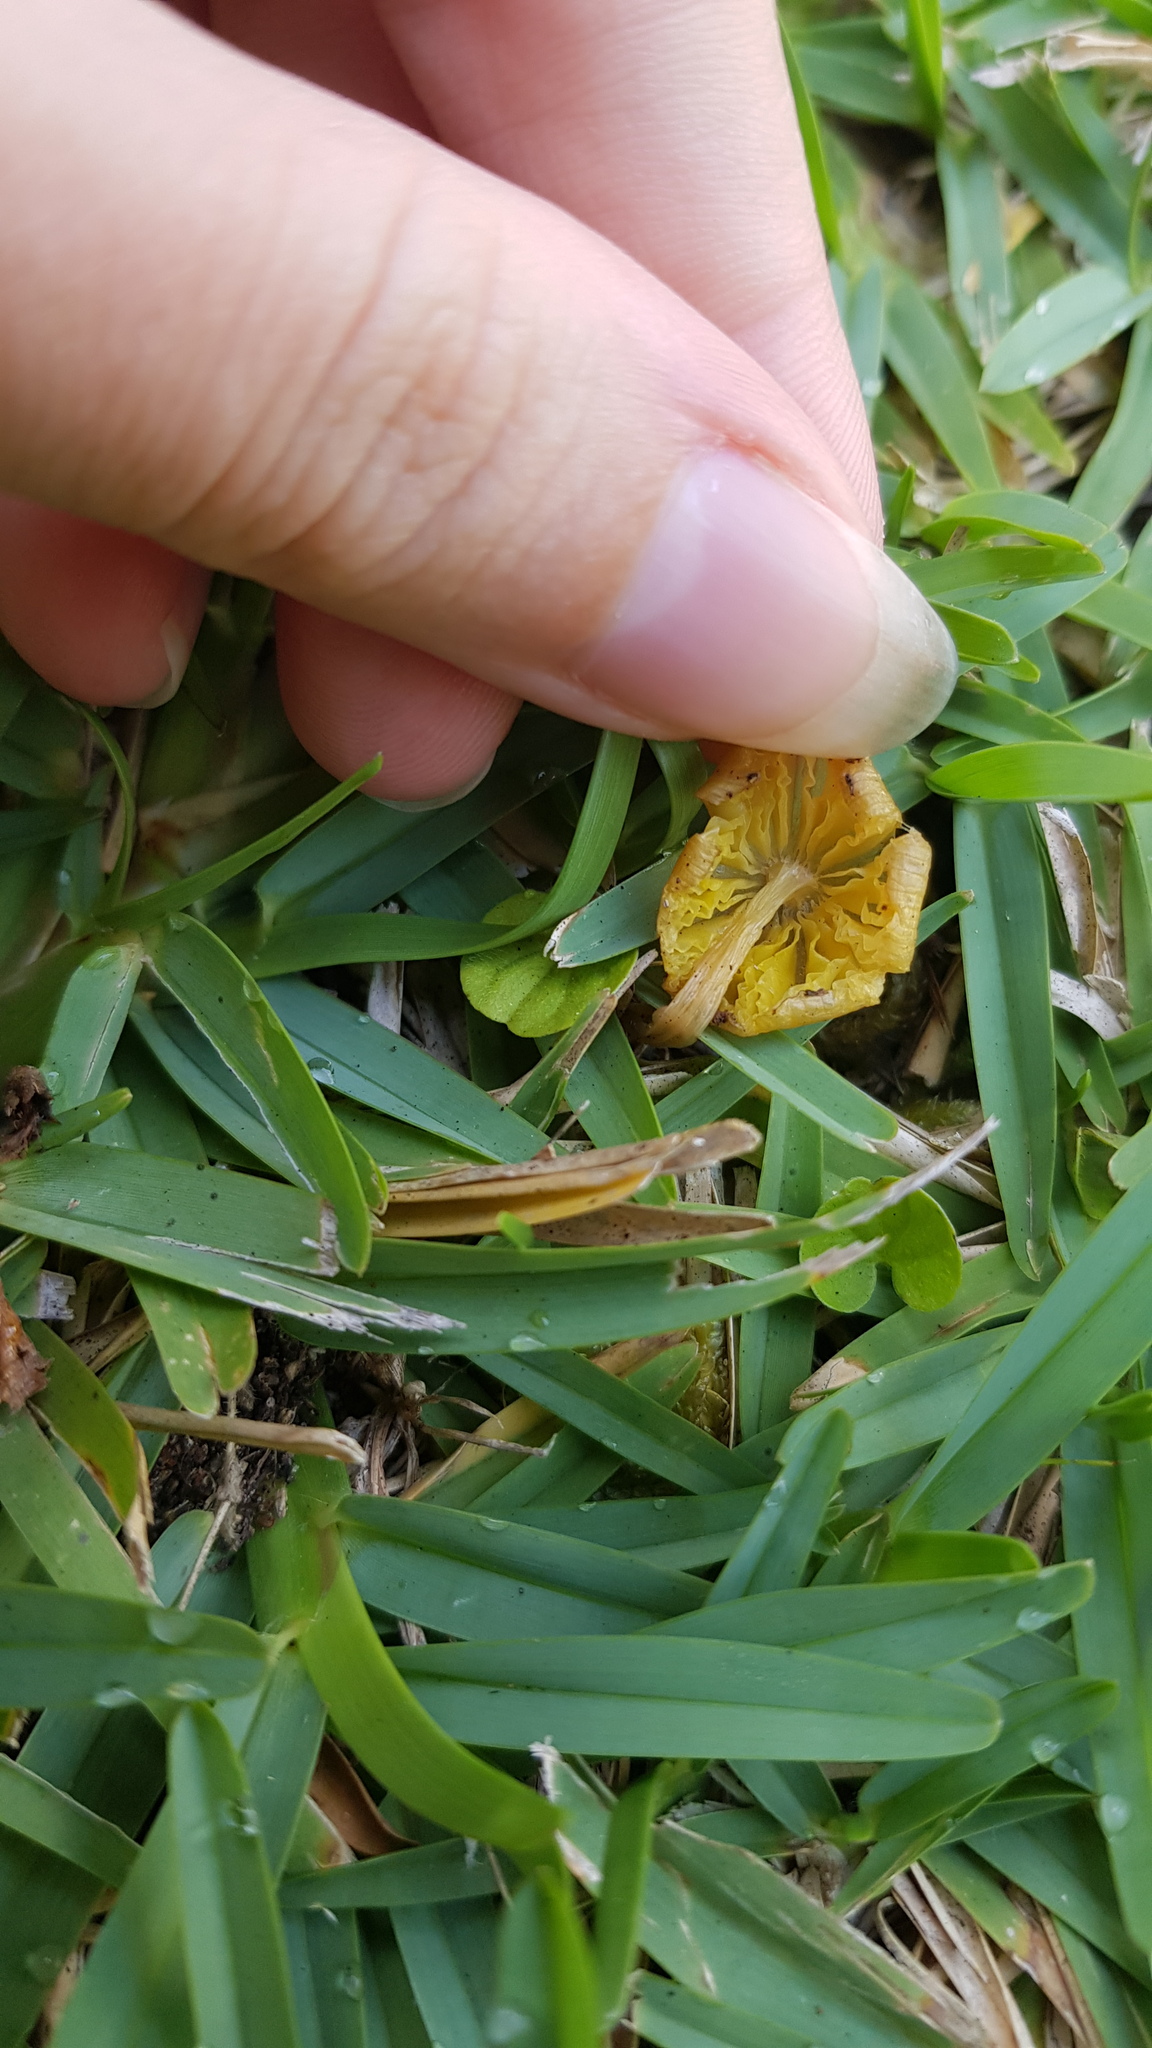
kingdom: Fungi
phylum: Basidiomycota
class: Agaricomycetes
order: Agaricales
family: Hygrophoraceae
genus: Hygrocybe
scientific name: Hygrocybe acutoconica
